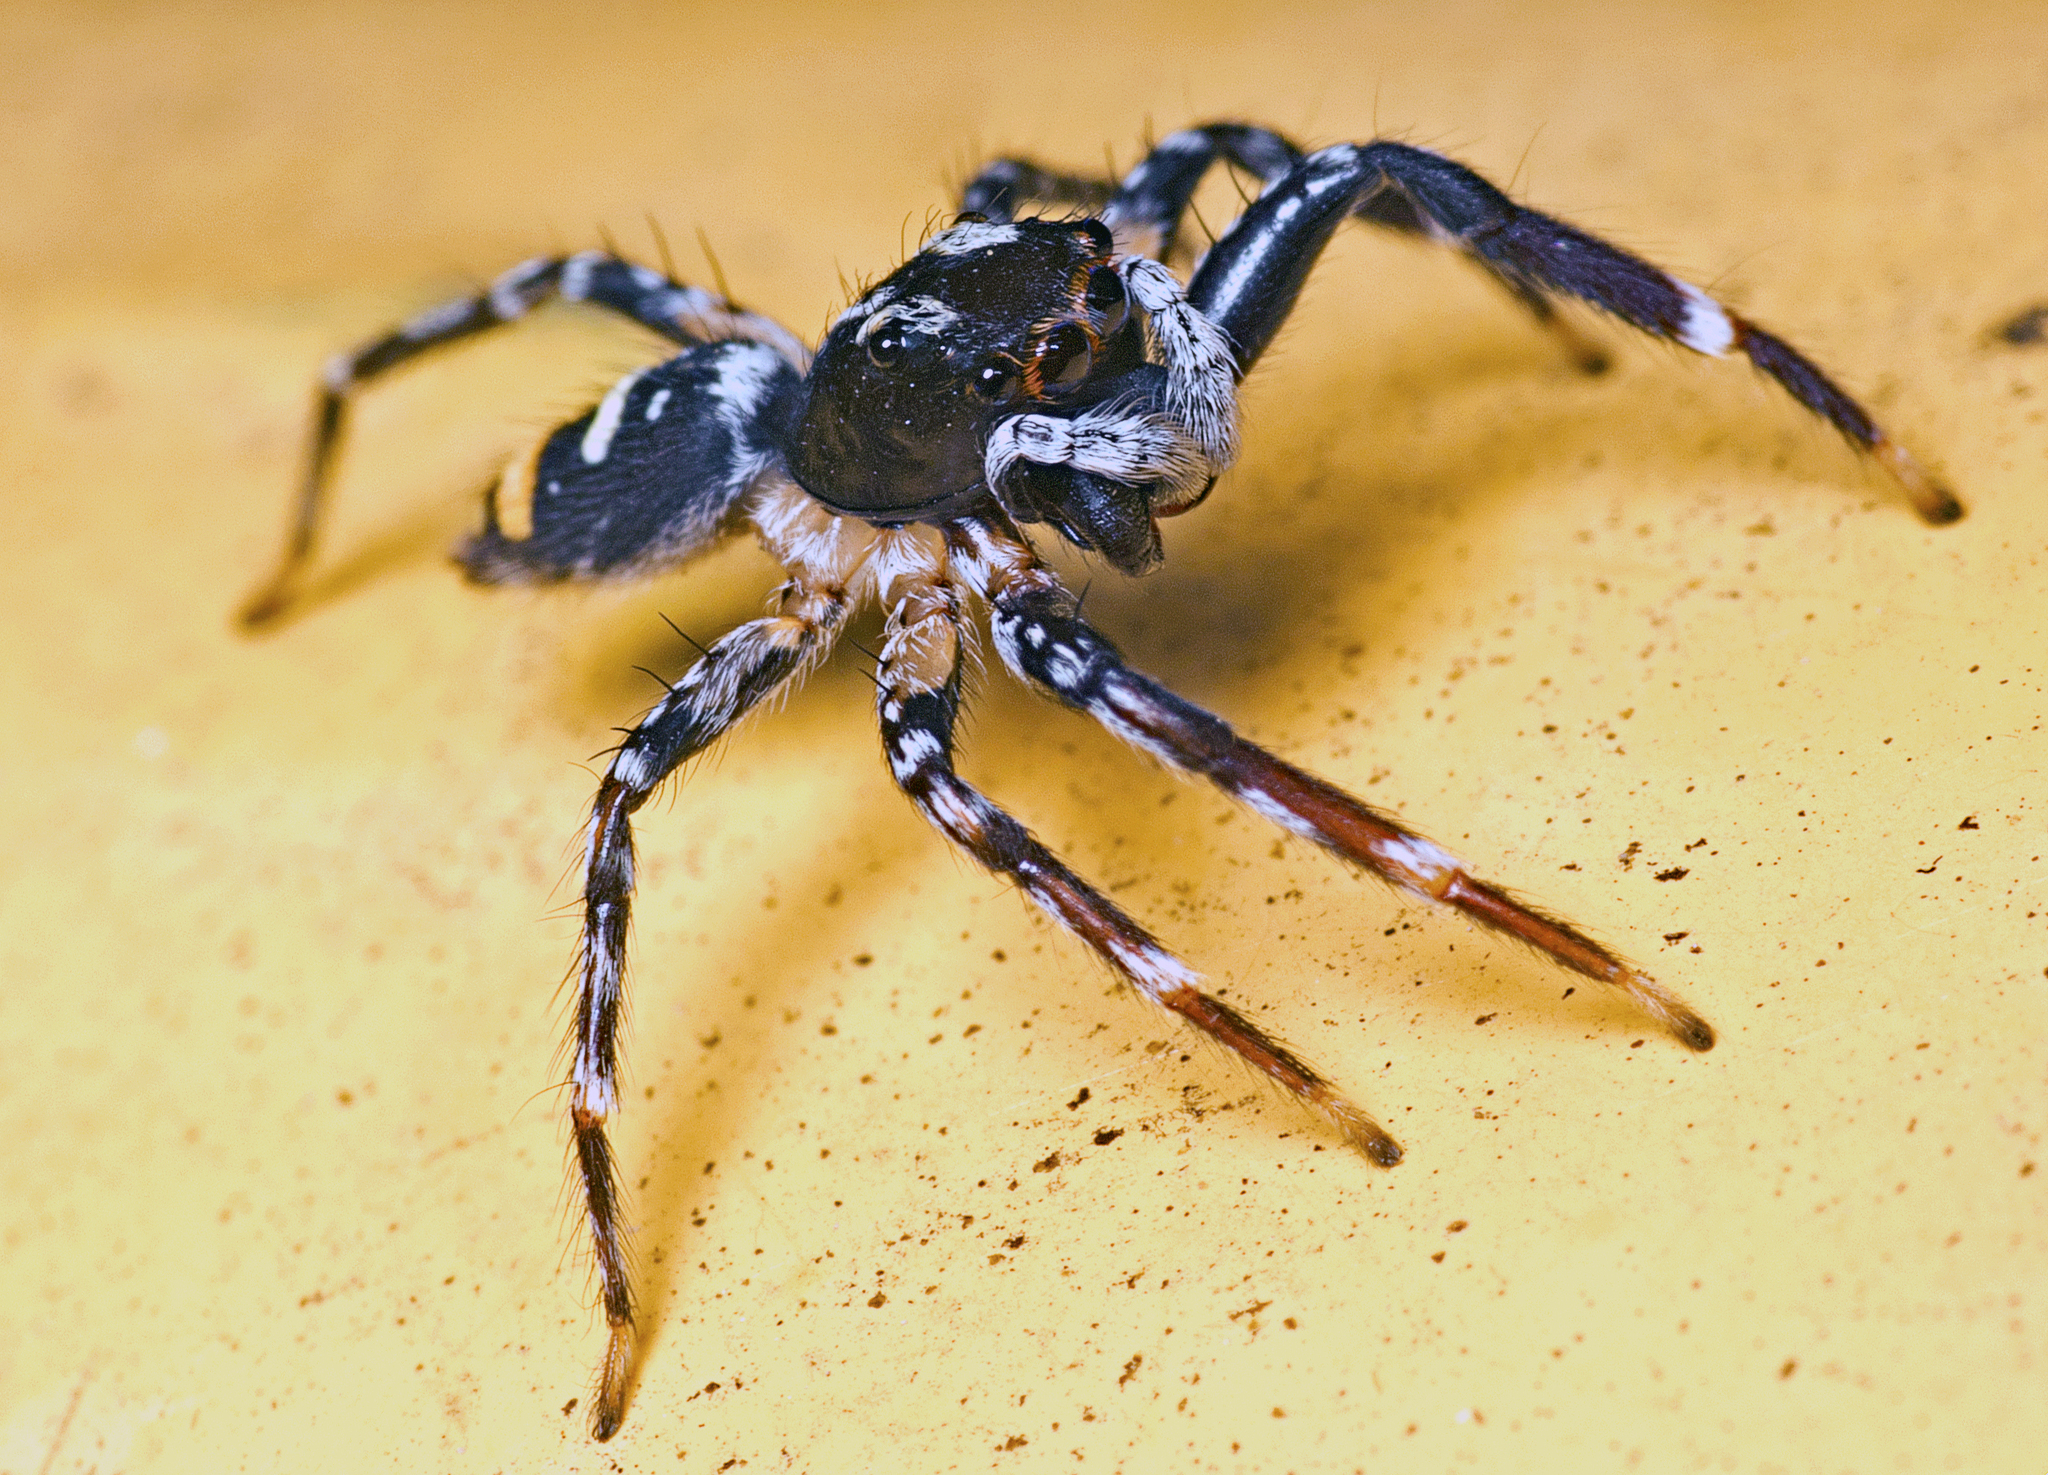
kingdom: Animalia
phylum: Arthropoda
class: Arachnida
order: Araneae
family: Salticidae
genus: Astia
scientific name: Astia
